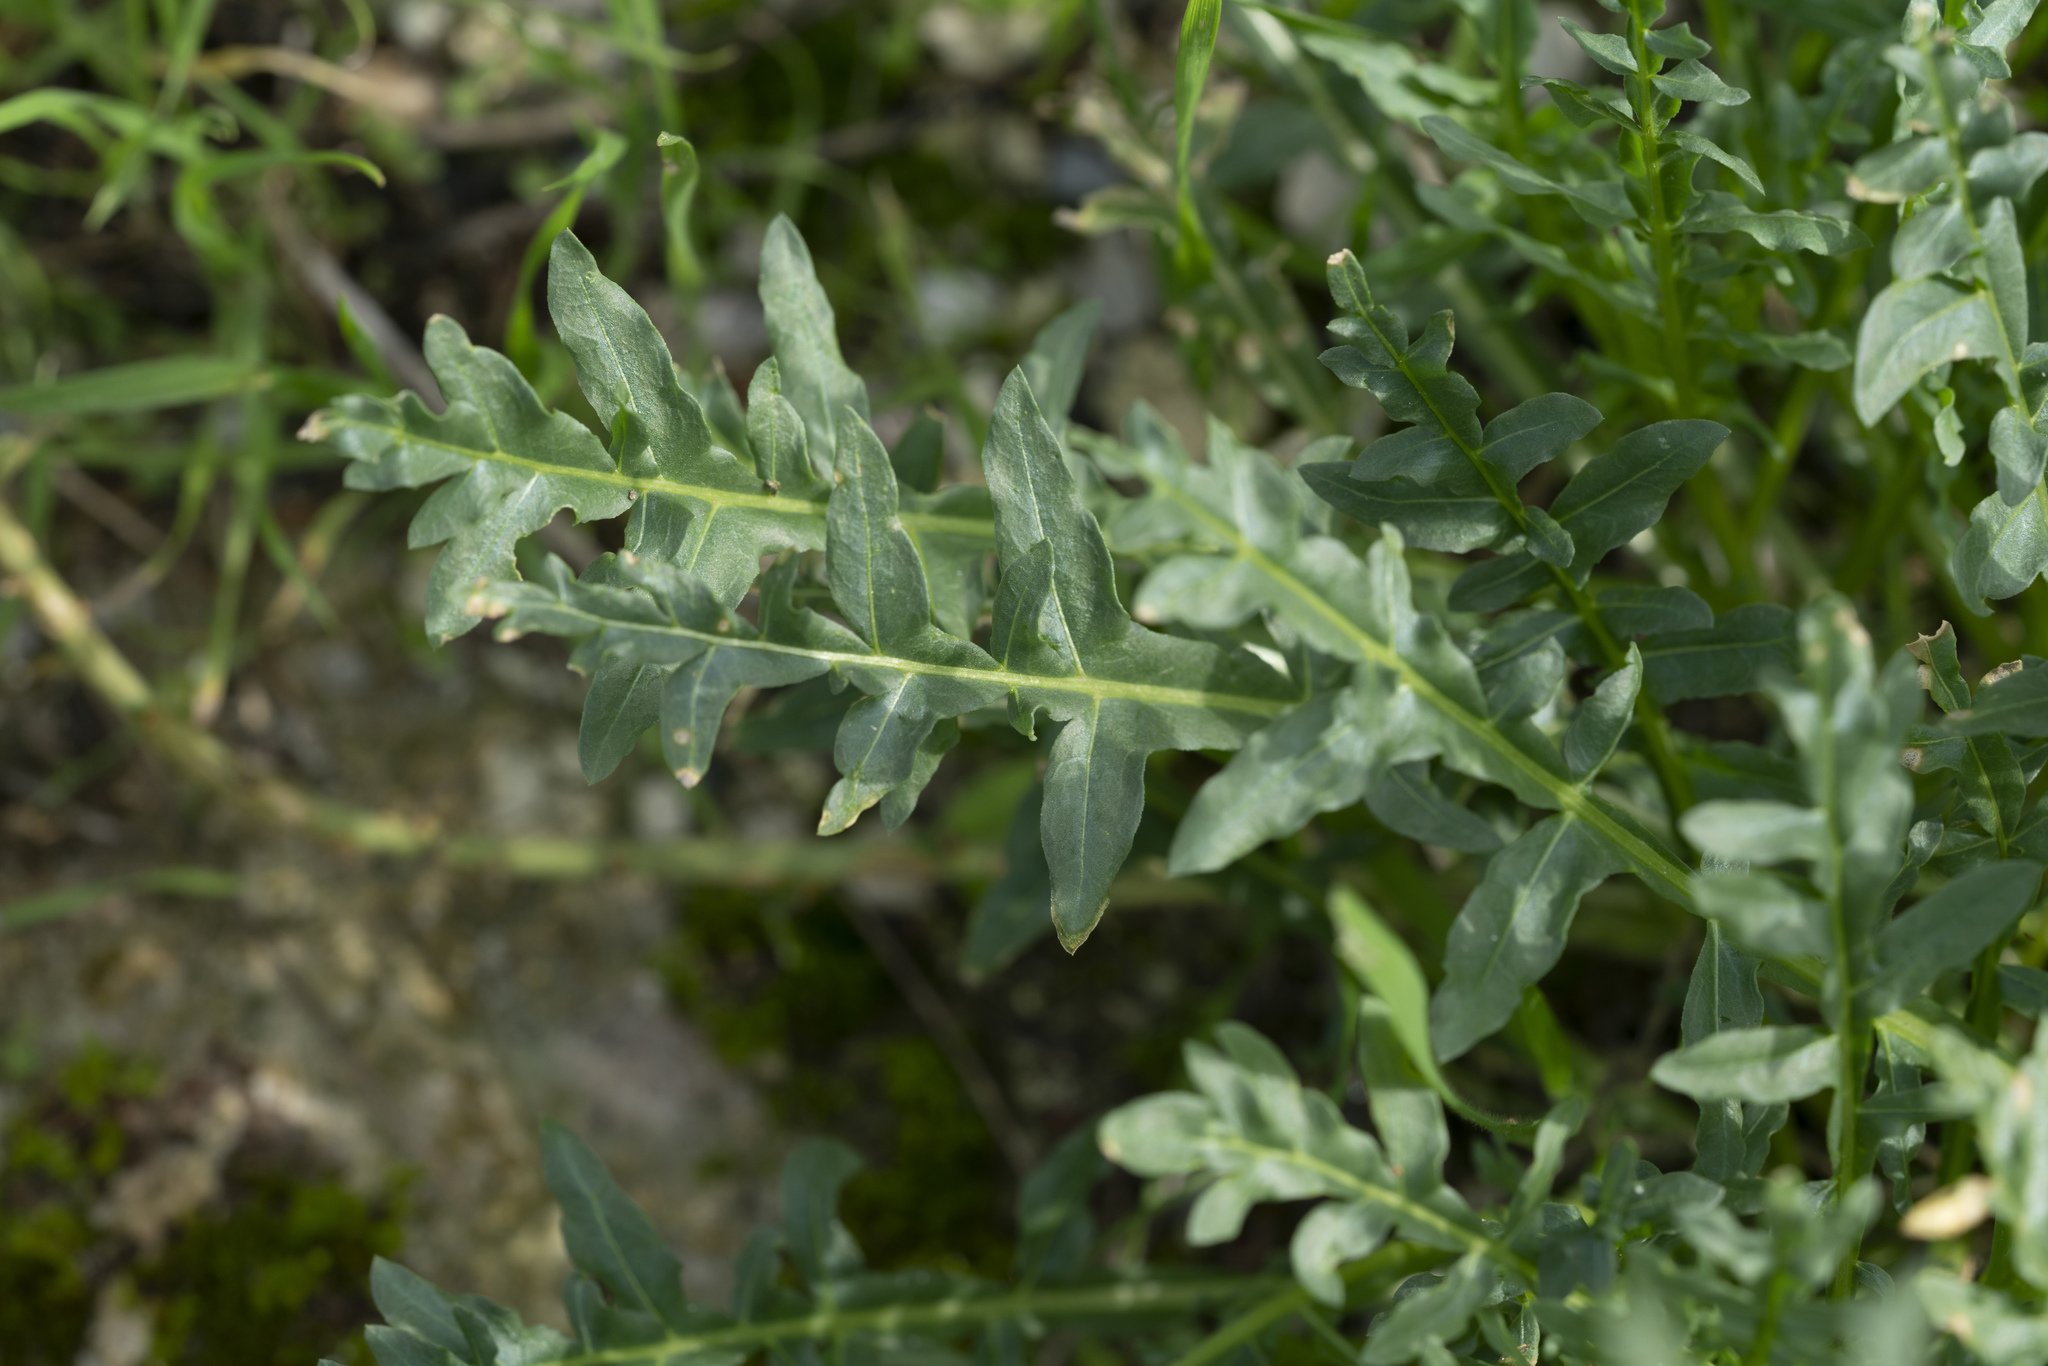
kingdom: Plantae
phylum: Tracheophyta
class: Magnoliopsida
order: Brassicales
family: Resedaceae
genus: Reseda
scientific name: Reseda alba
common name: White mignonette
